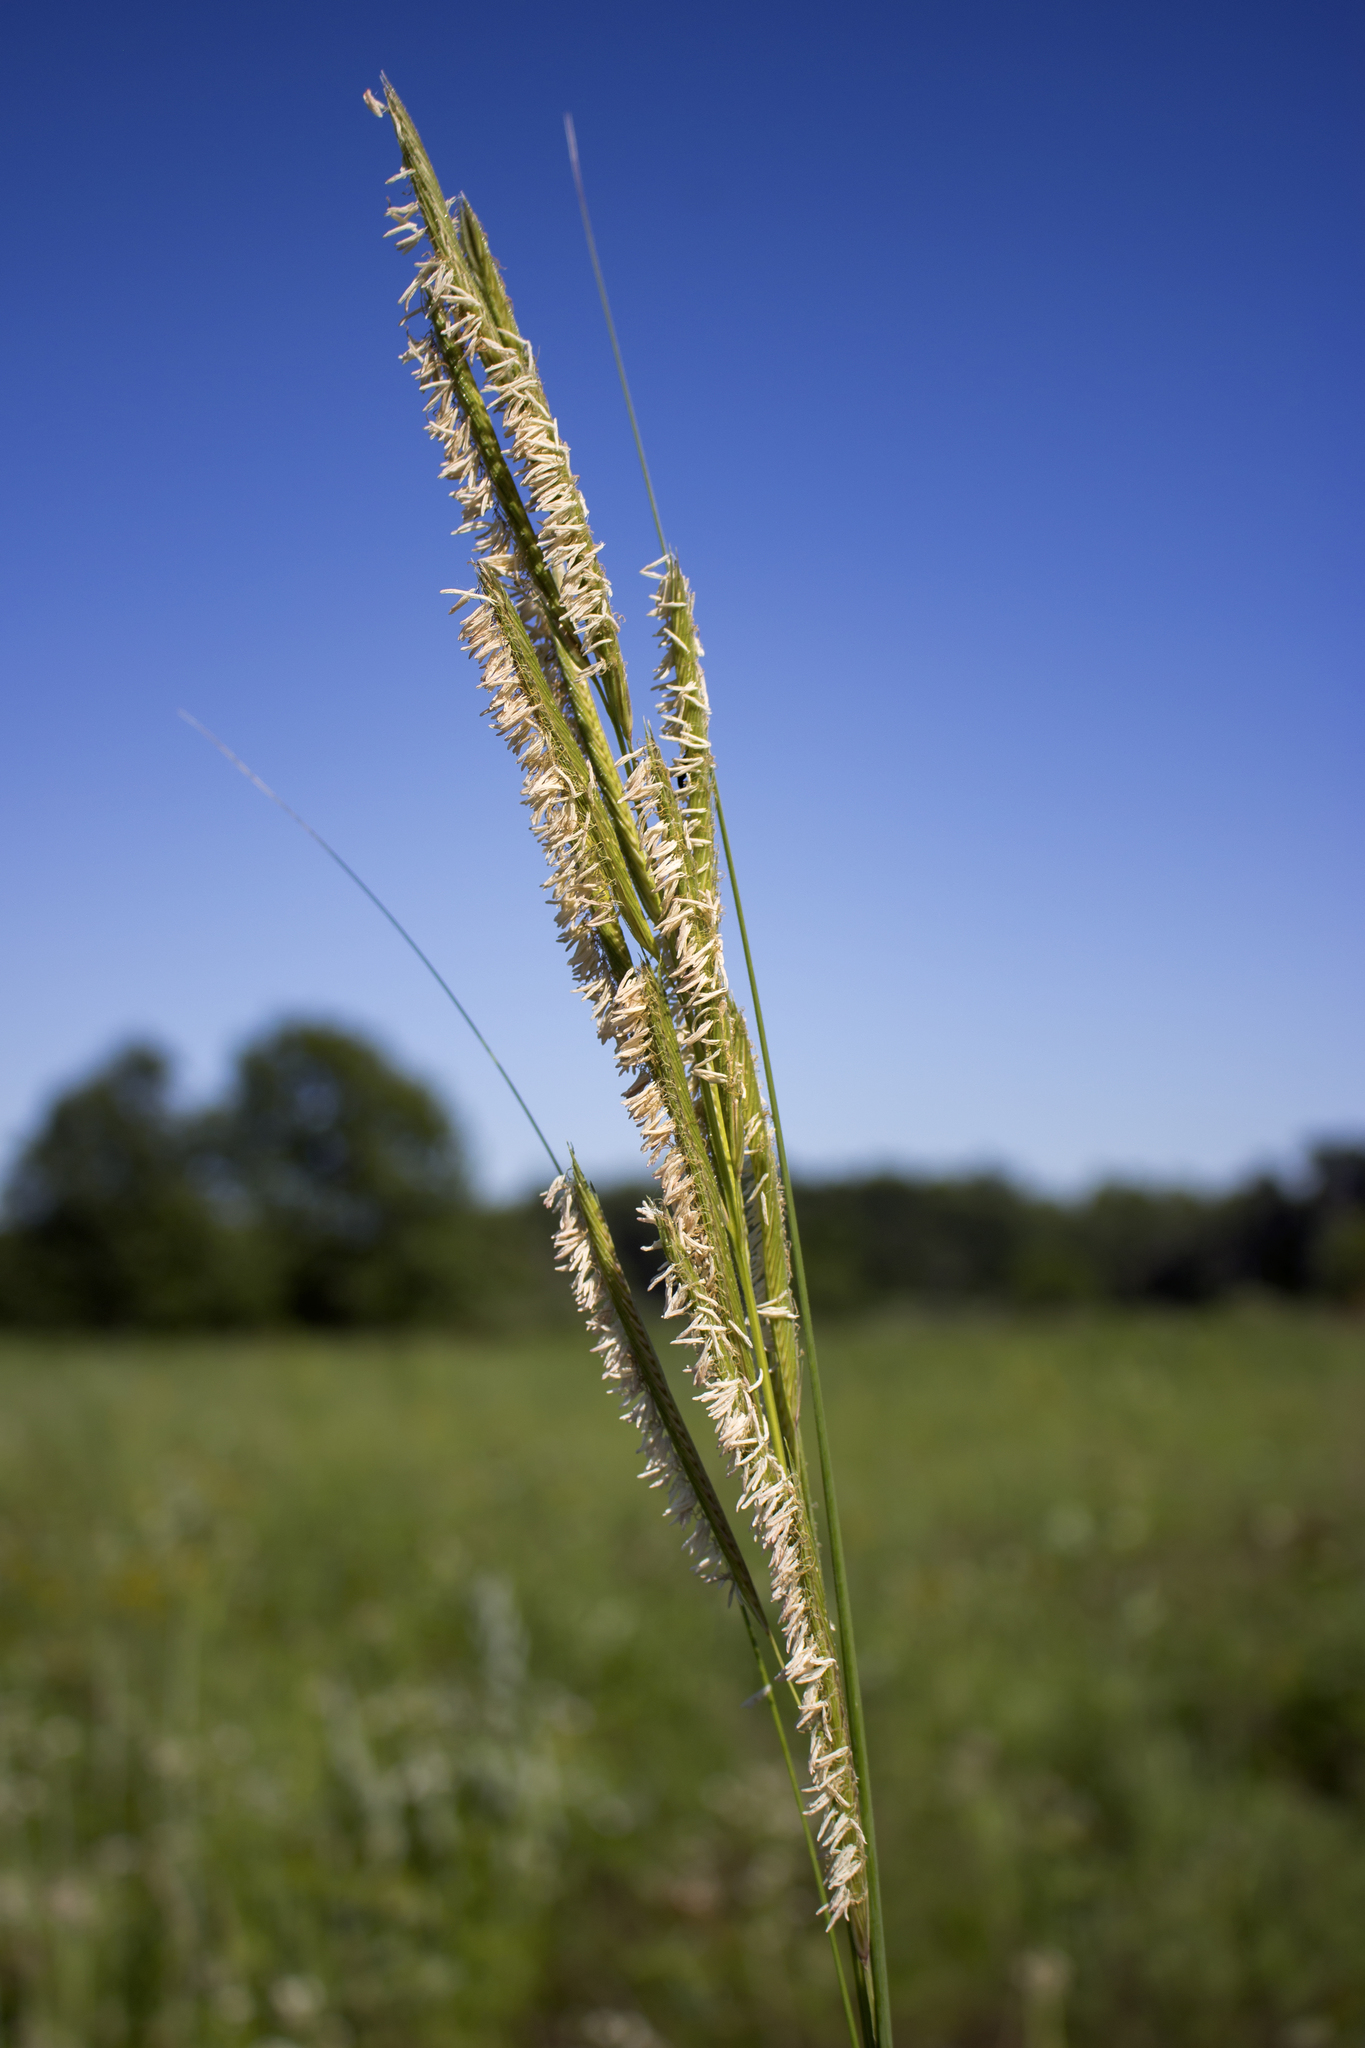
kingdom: Plantae
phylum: Tracheophyta
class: Liliopsida
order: Poales
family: Poaceae
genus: Sporobolus
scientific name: Sporobolus michauxianus
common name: Freshwater cordgrass
